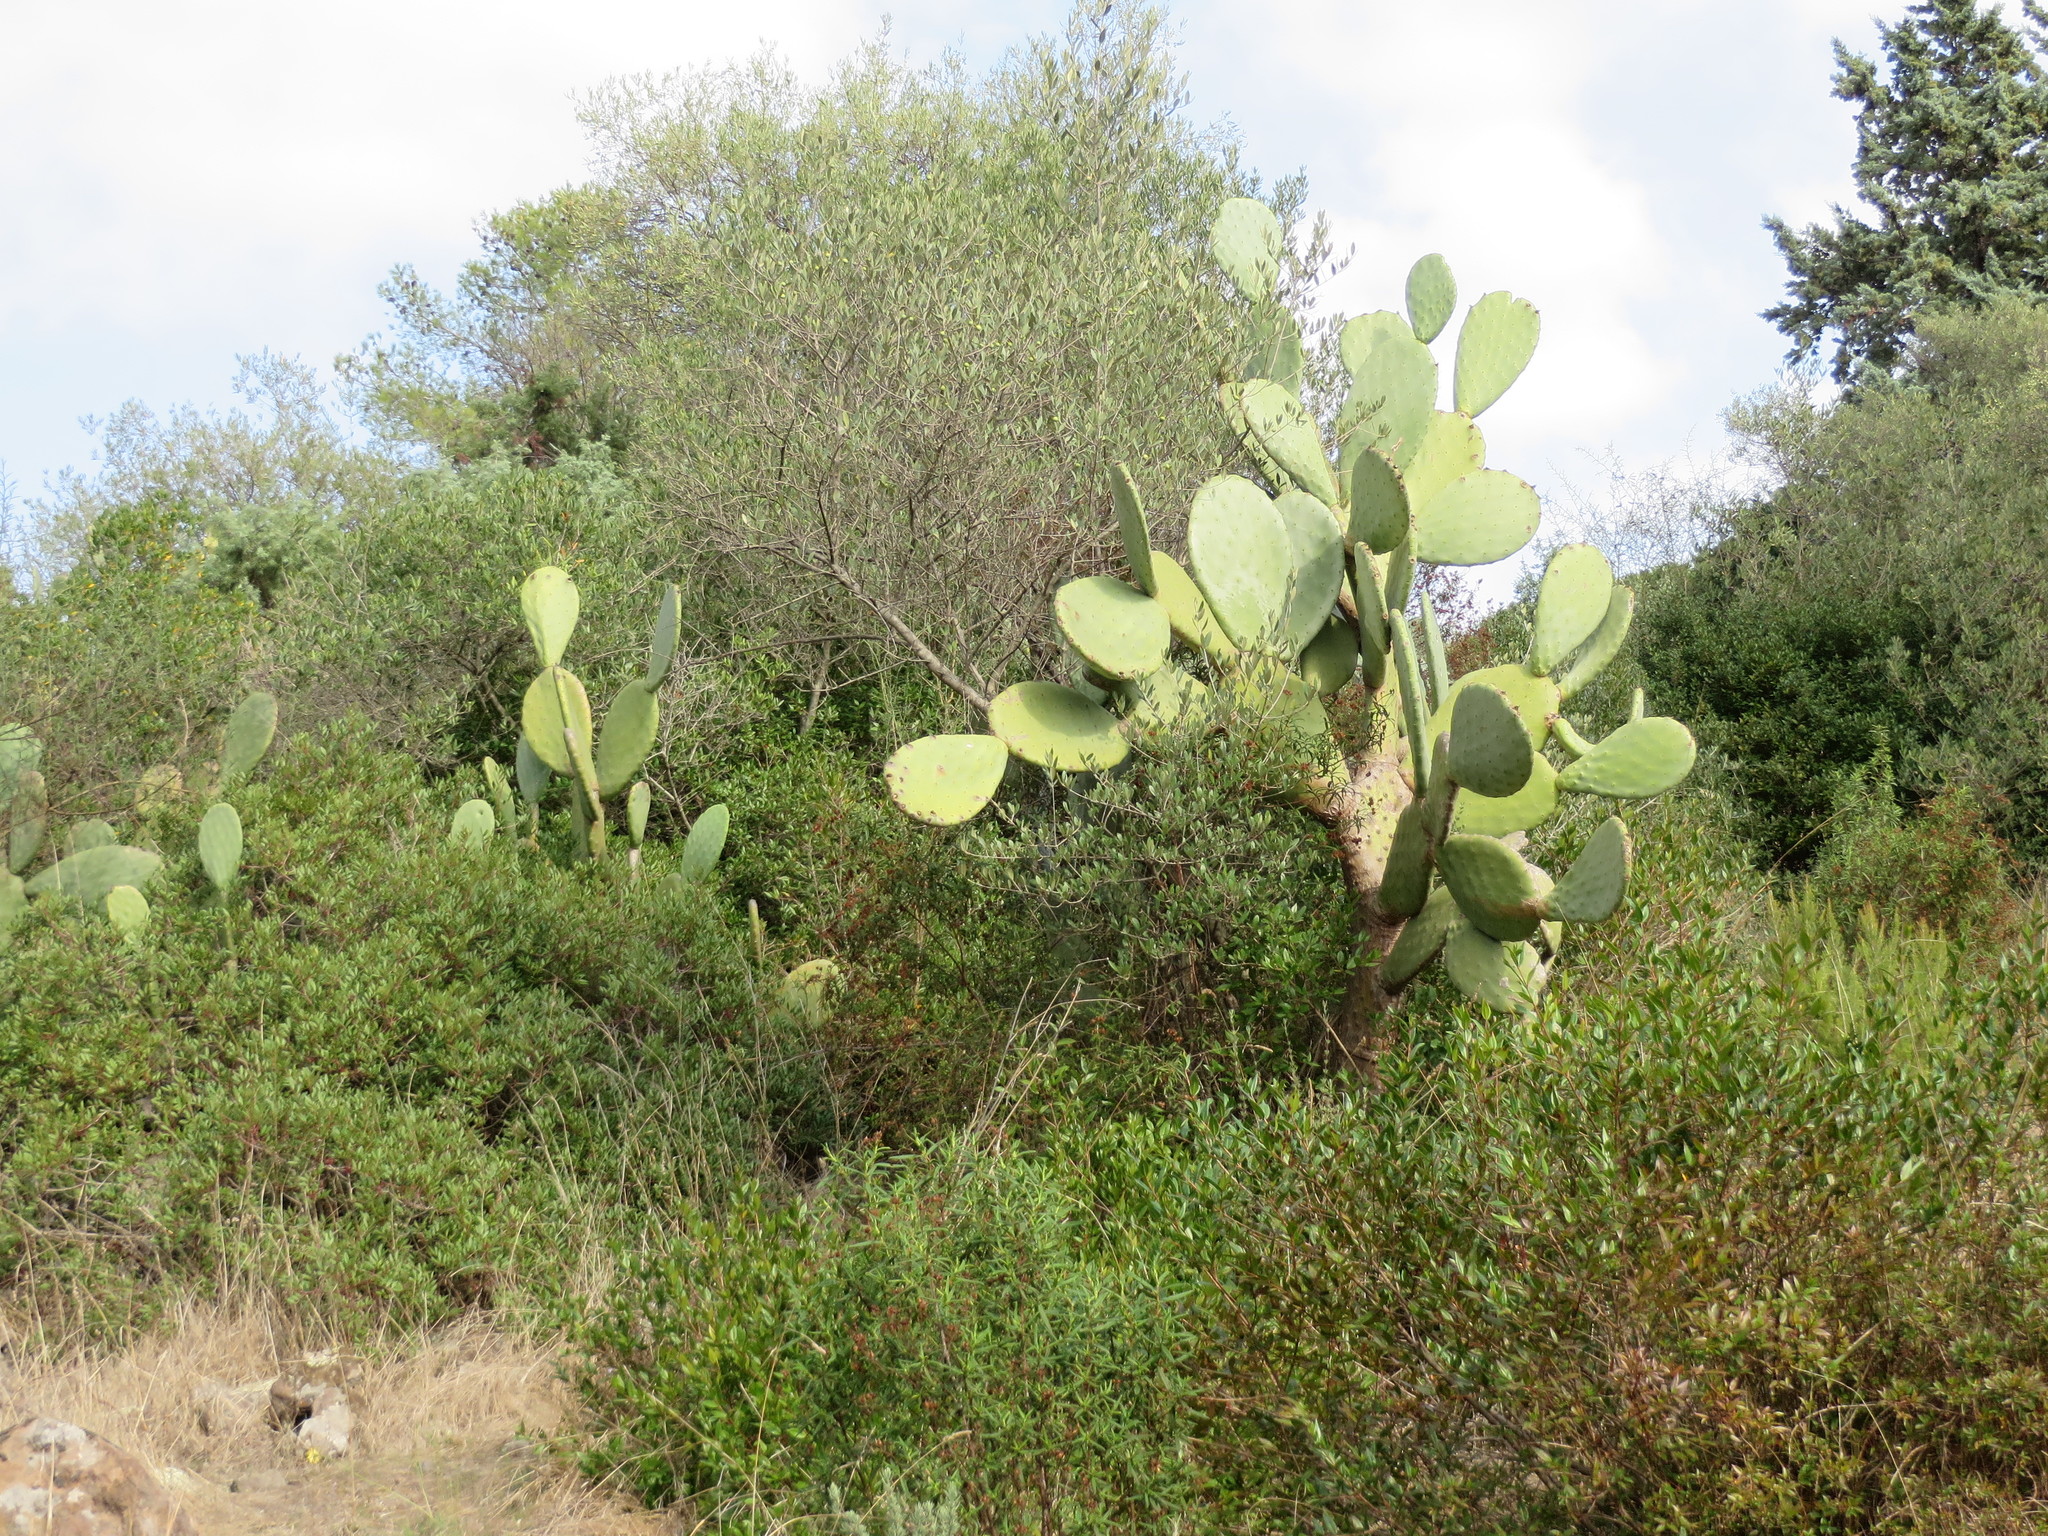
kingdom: Plantae
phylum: Tracheophyta
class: Magnoliopsida
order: Caryophyllales
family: Cactaceae
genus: Opuntia
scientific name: Opuntia ficus-indica
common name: Barbary fig
